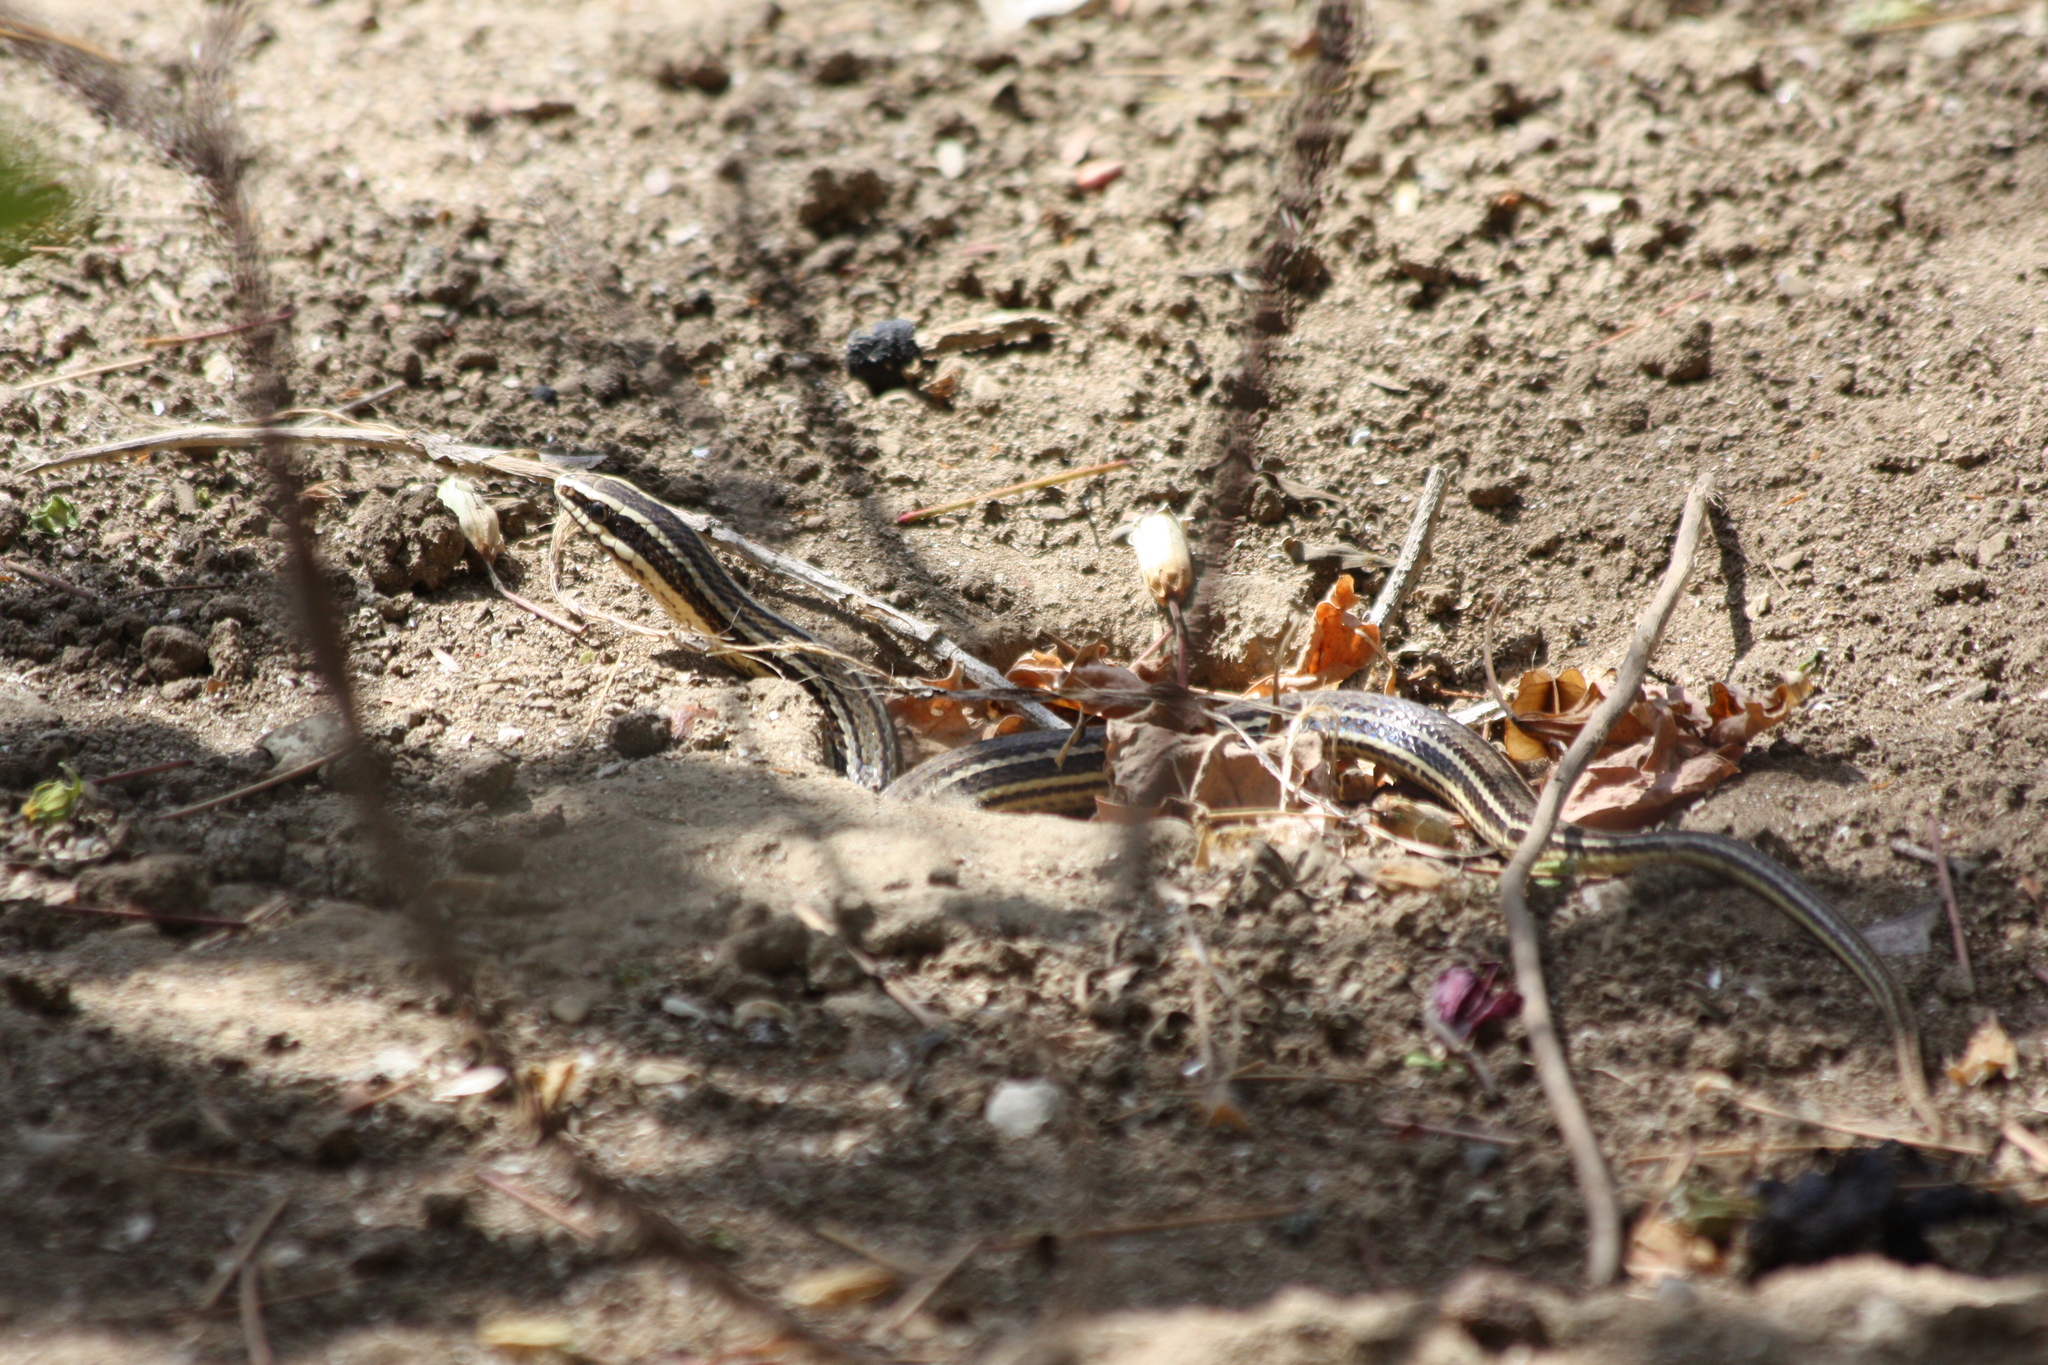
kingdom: Animalia
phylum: Chordata
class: Squamata
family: Colubridae
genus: Conophis
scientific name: Conophis lineatus
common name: Road guarder
